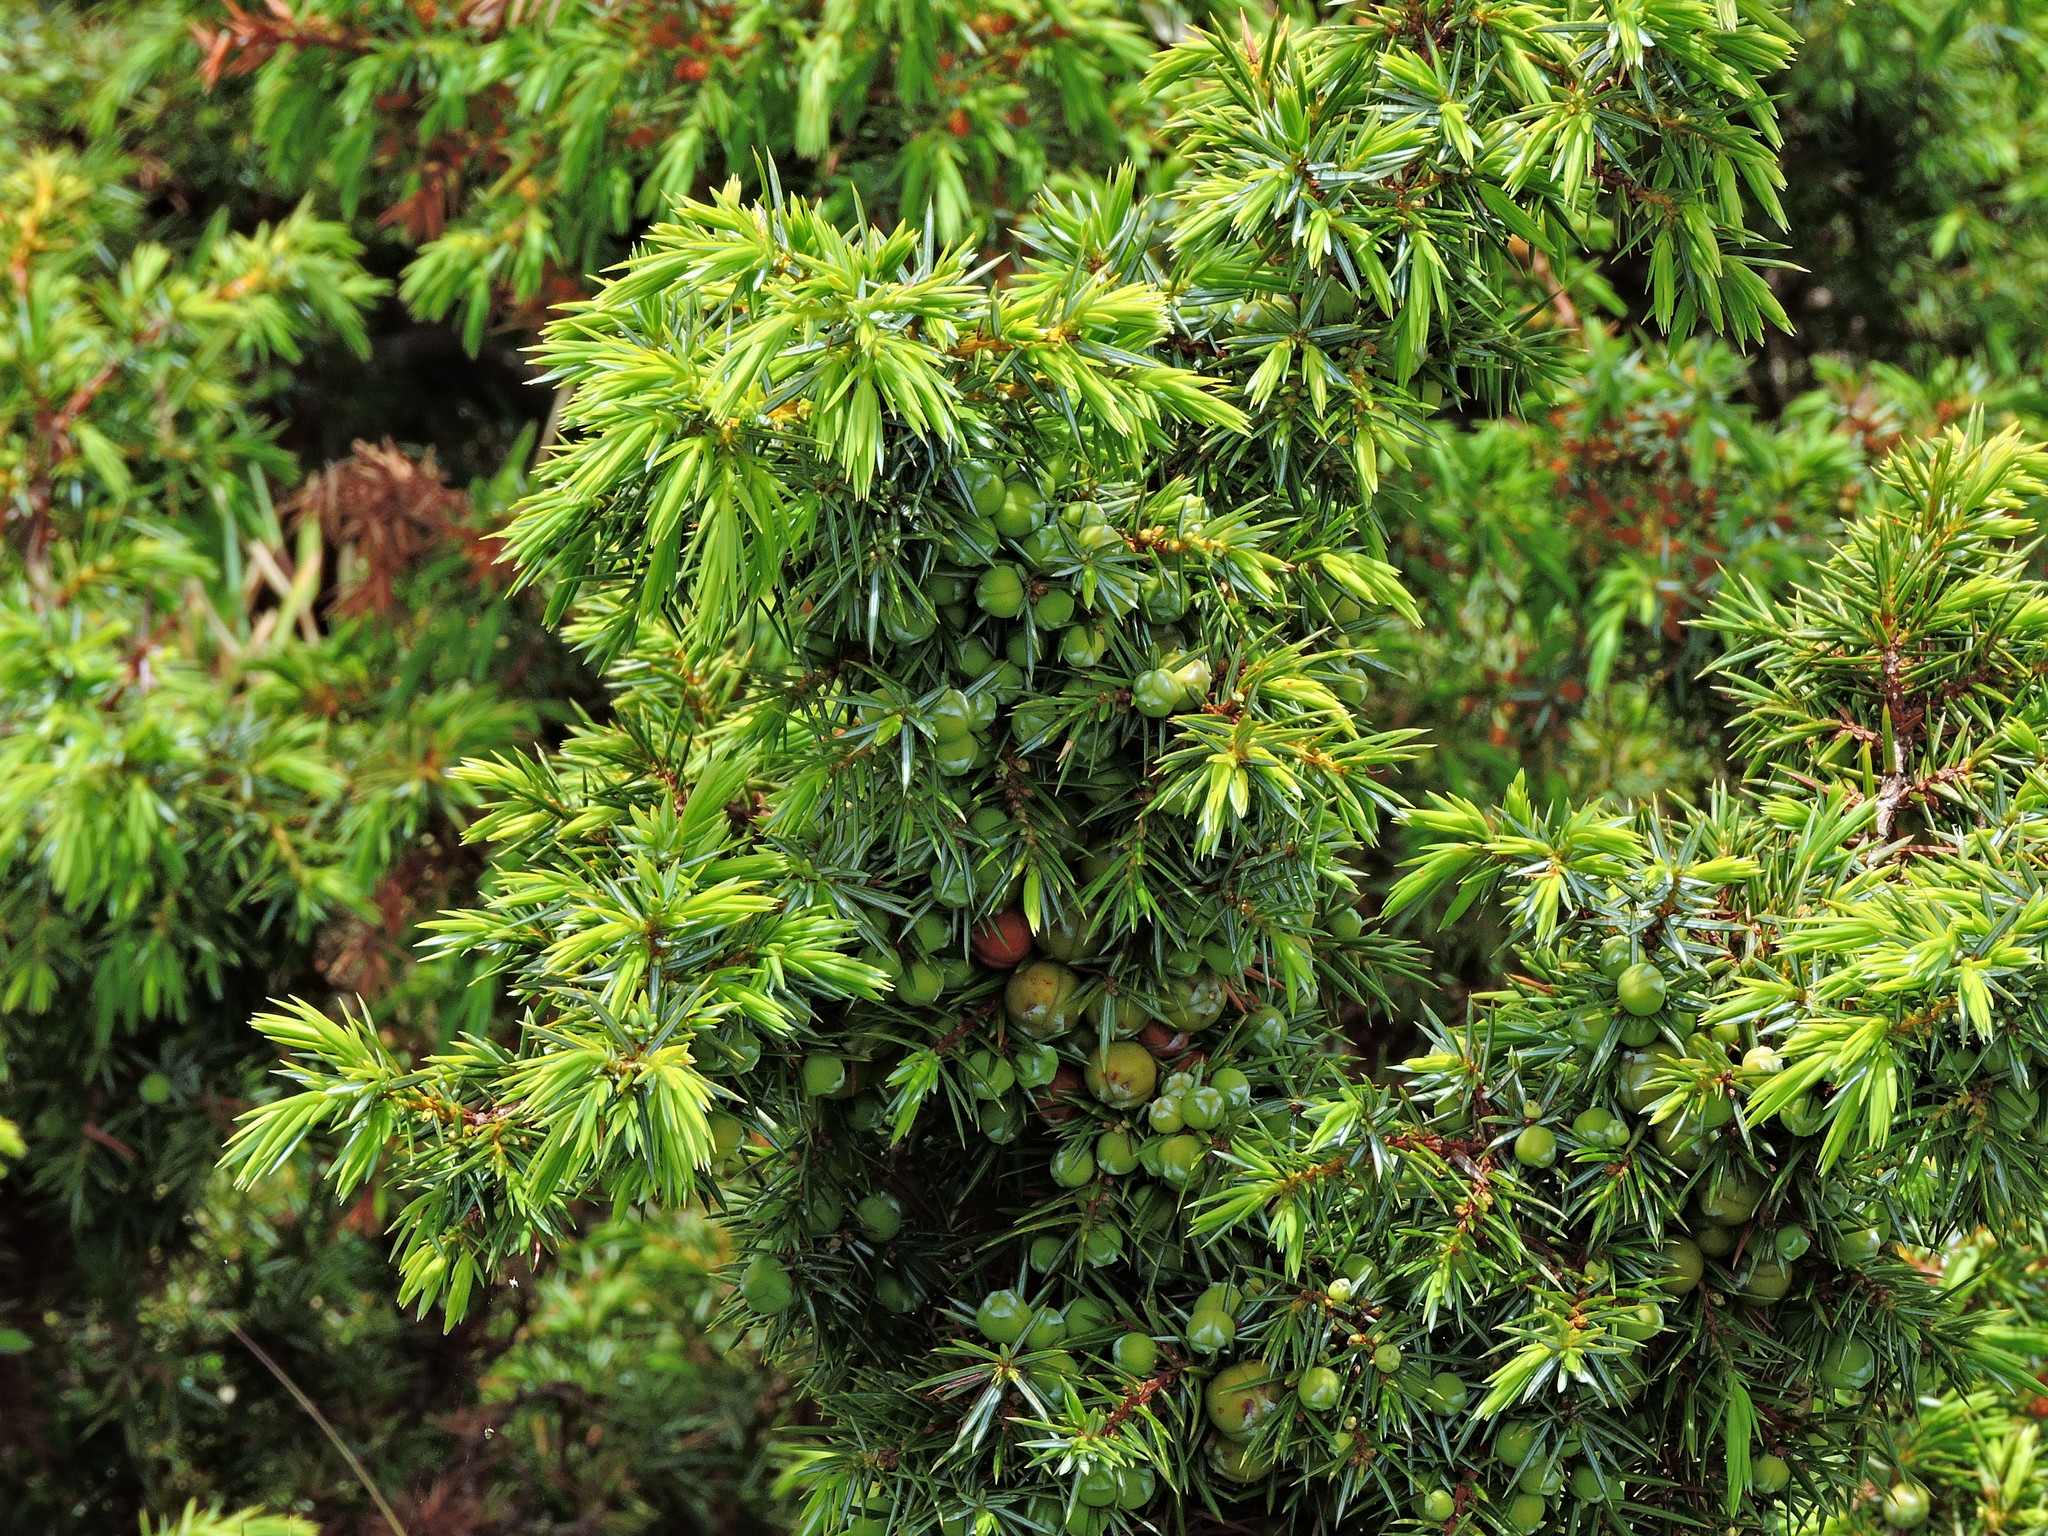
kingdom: Plantae
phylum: Tracheophyta
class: Pinopsida
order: Pinales
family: Cupressaceae
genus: Juniperus
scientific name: Juniperus formosana
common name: Formosan juniper
